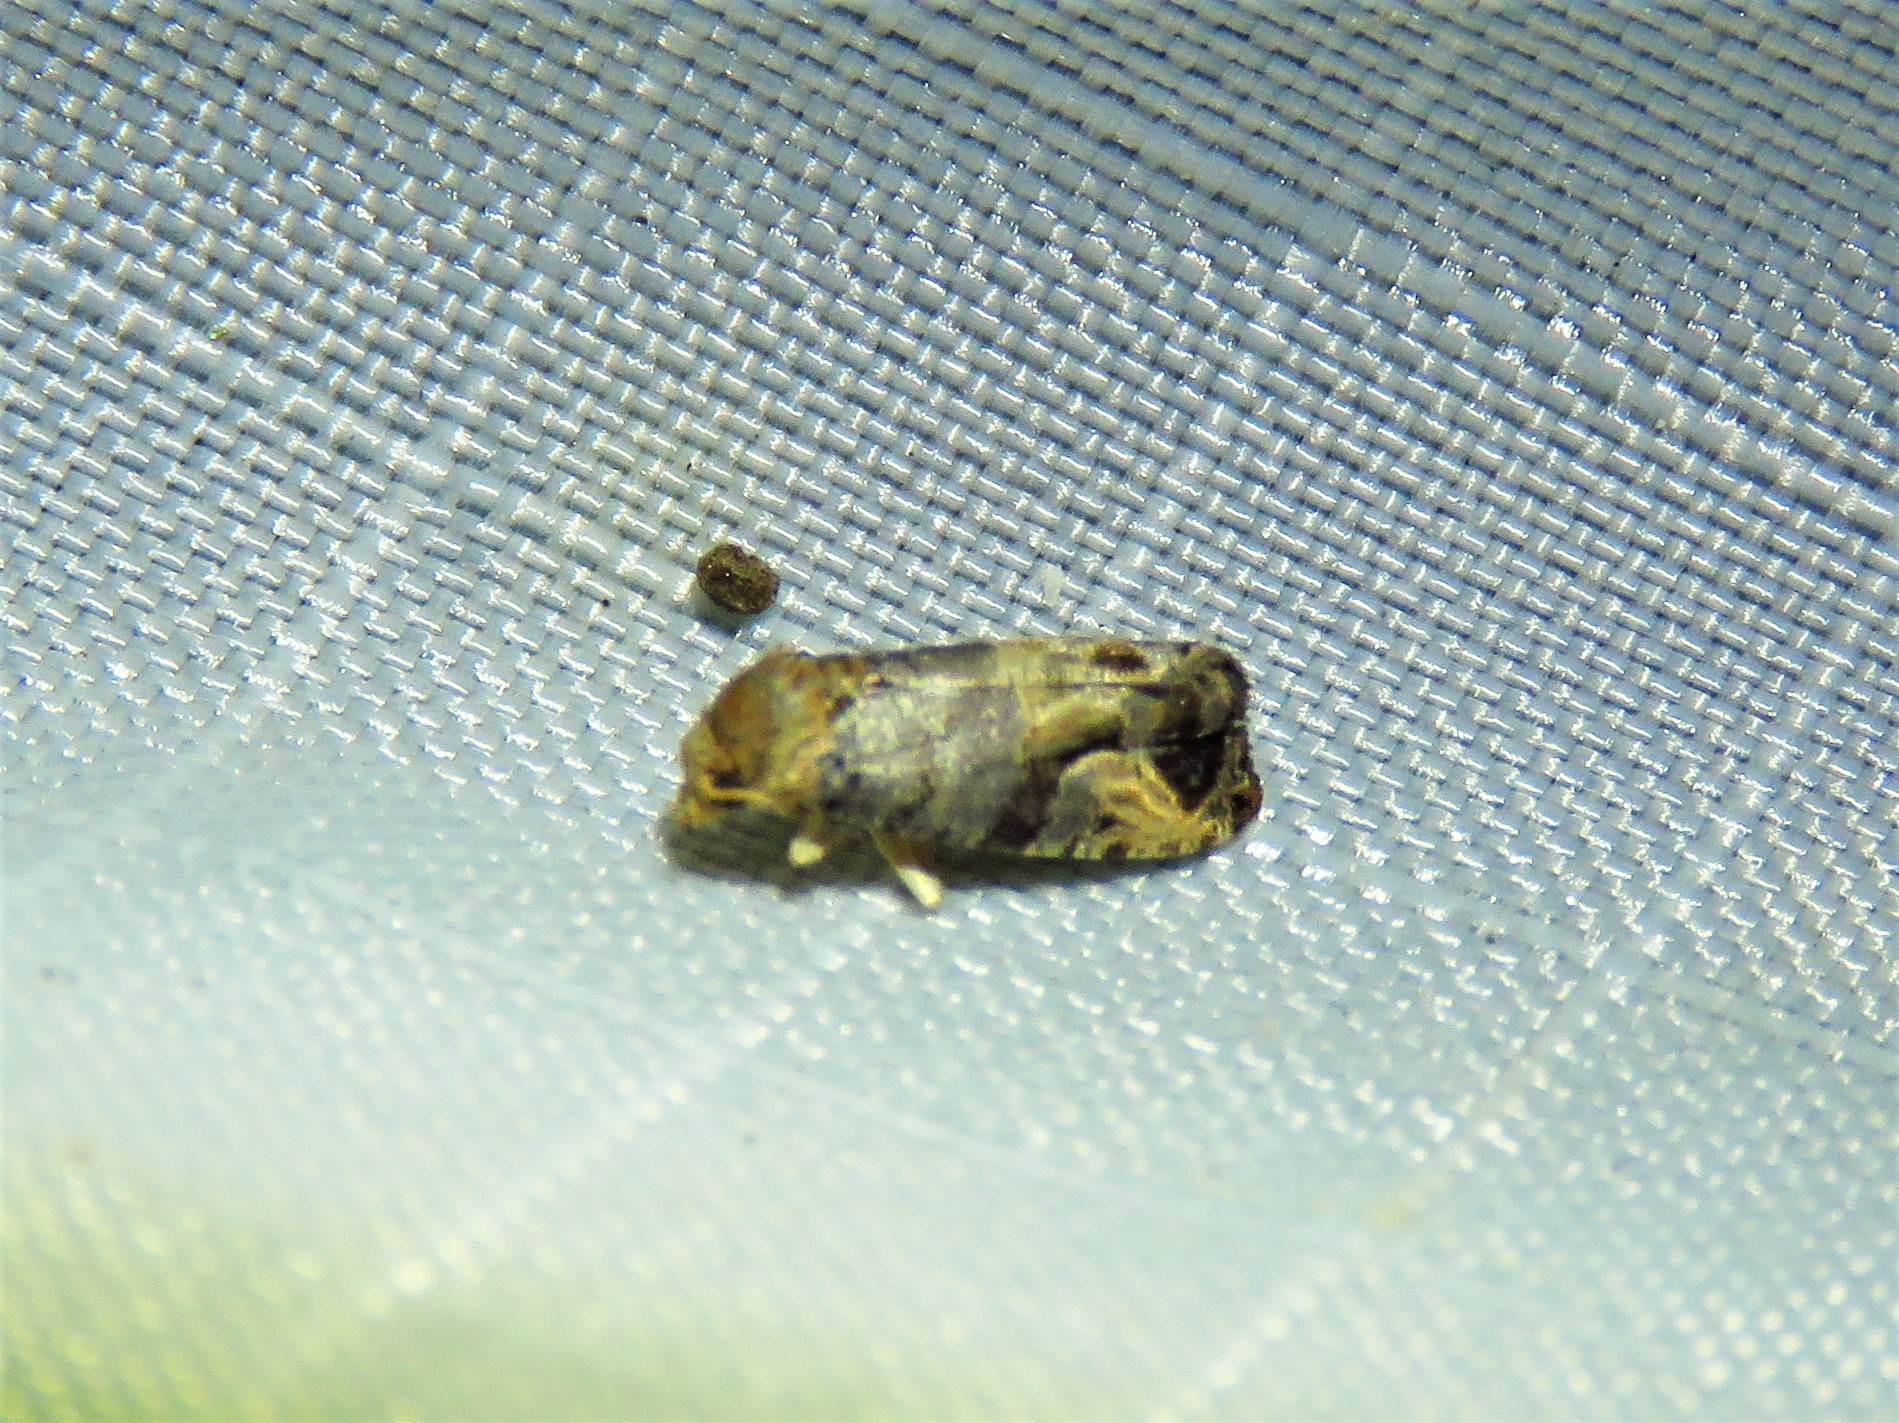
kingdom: Animalia
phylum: Arthropoda
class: Insecta
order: Lepidoptera
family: Tortricidae
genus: Paralobesia
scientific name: Paralobesia viteana
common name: Grape berry moth
